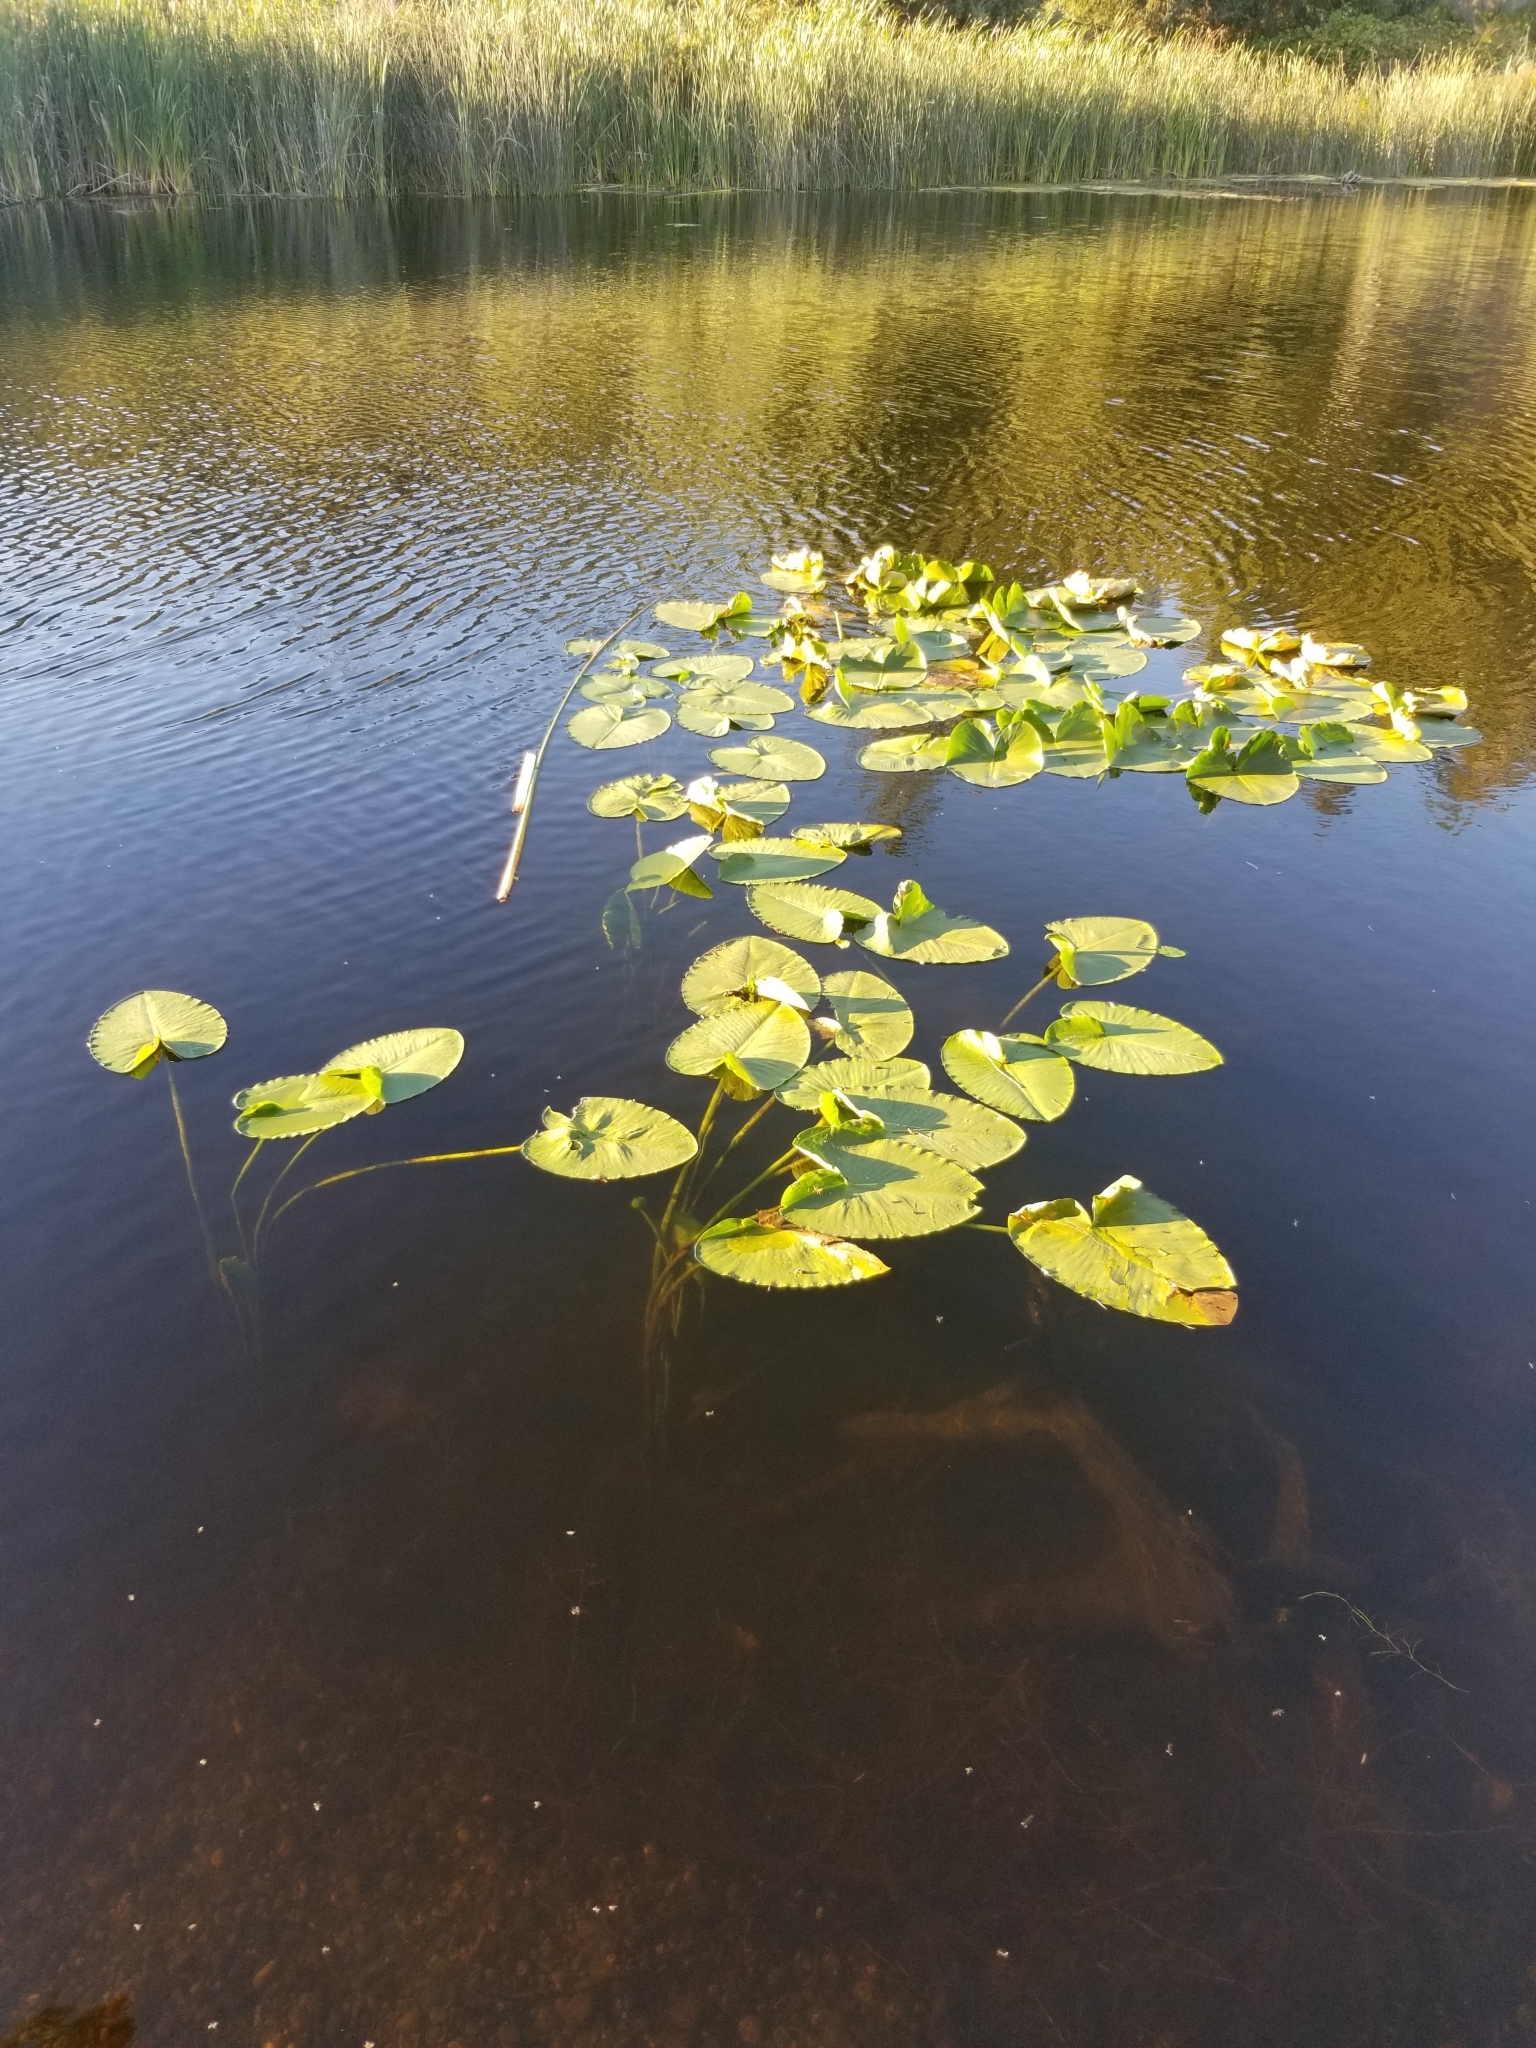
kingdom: Plantae
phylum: Tracheophyta
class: Magnoliopsida
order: Nymphaeales
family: Nymphaeaceae
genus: Nuphar
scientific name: Nuphar polysepala
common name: Rocky mountain cow-lily
